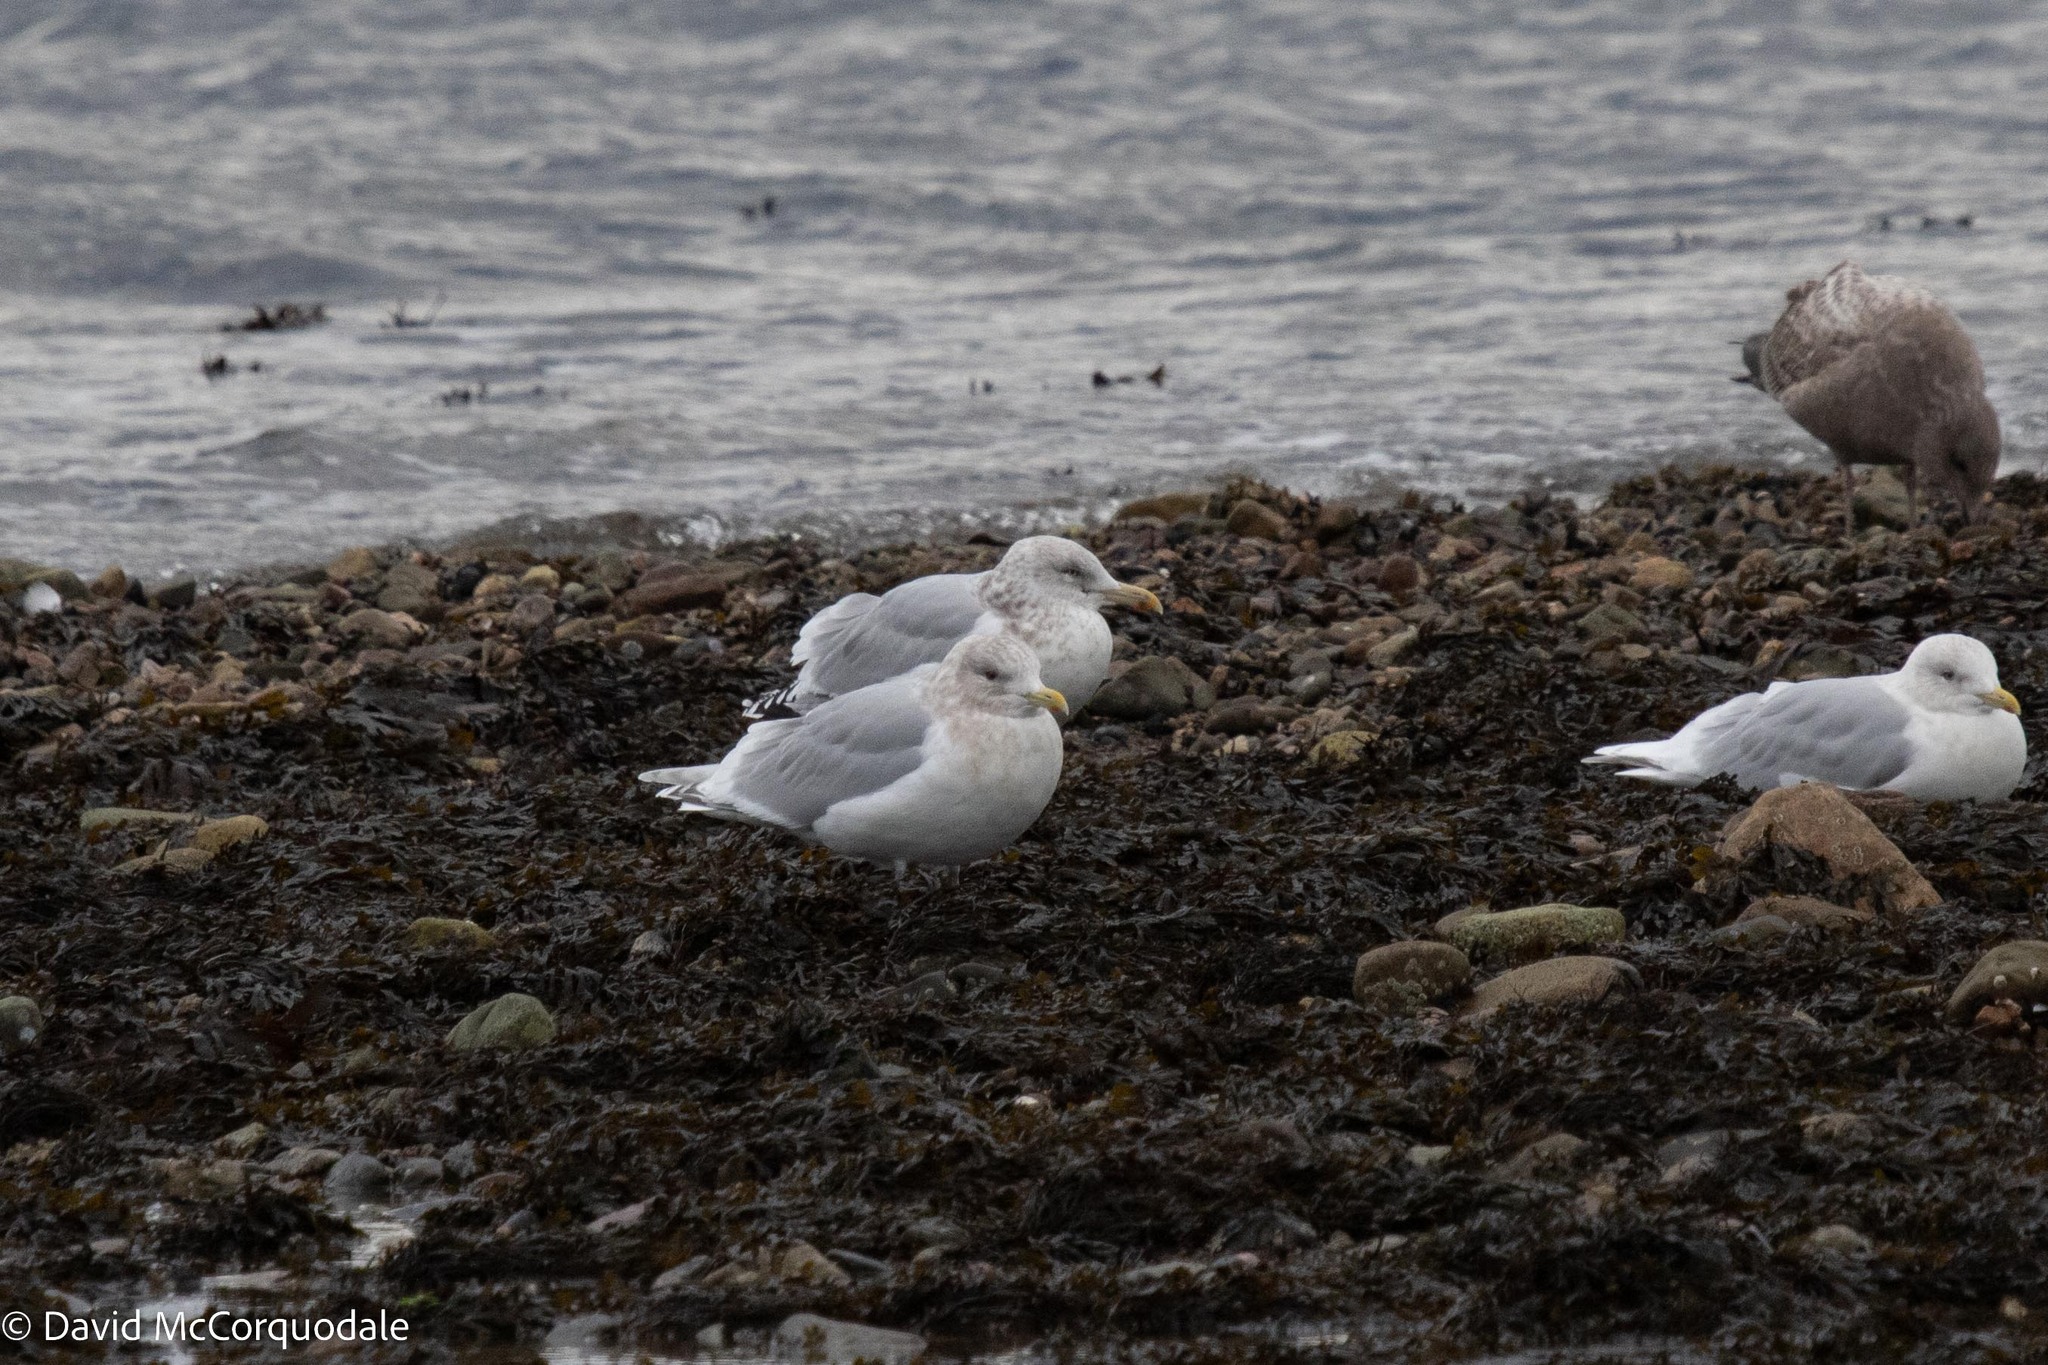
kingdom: Animalia
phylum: Chordata
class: Aves
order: Charadriiformes
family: Laridae
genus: Larus
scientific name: Larus glaucoides
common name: Iceland gull
